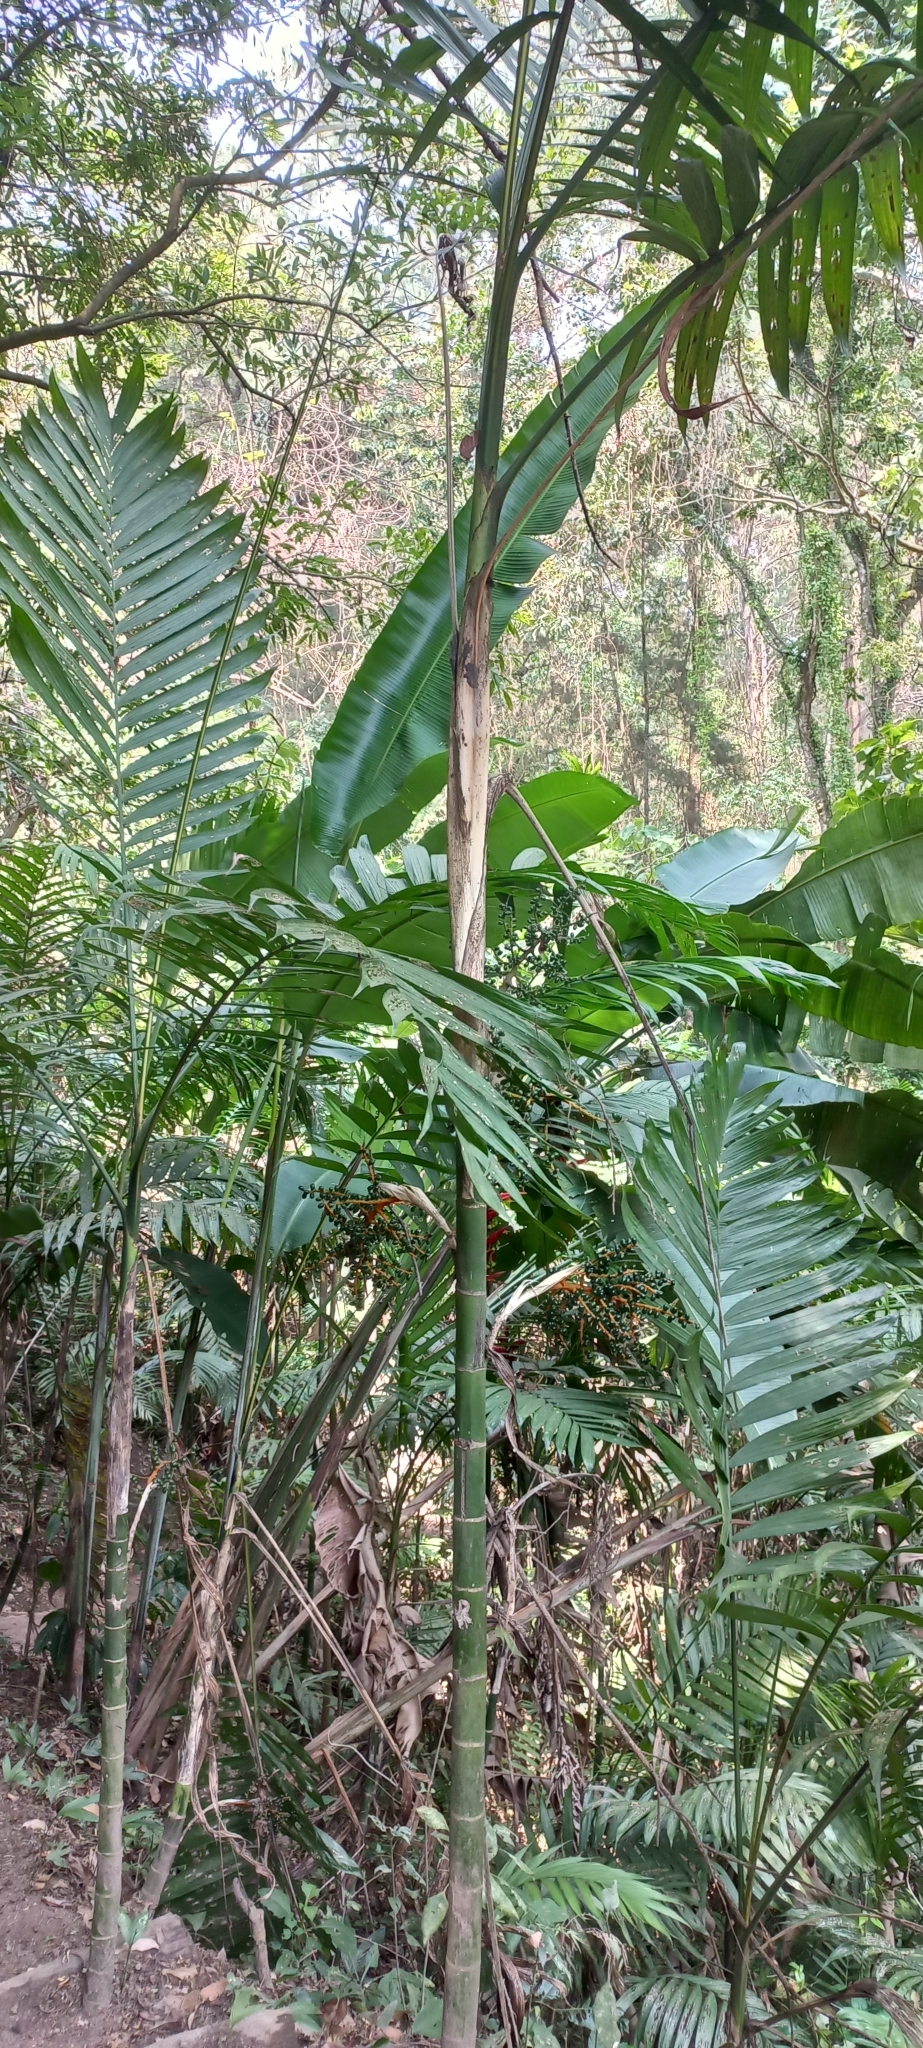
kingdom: Plantae
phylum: Tracheophyta
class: Liliopsida
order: Arecales
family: Arecaceae
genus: Chamaedorea
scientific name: Chamaedorea tepejilote
